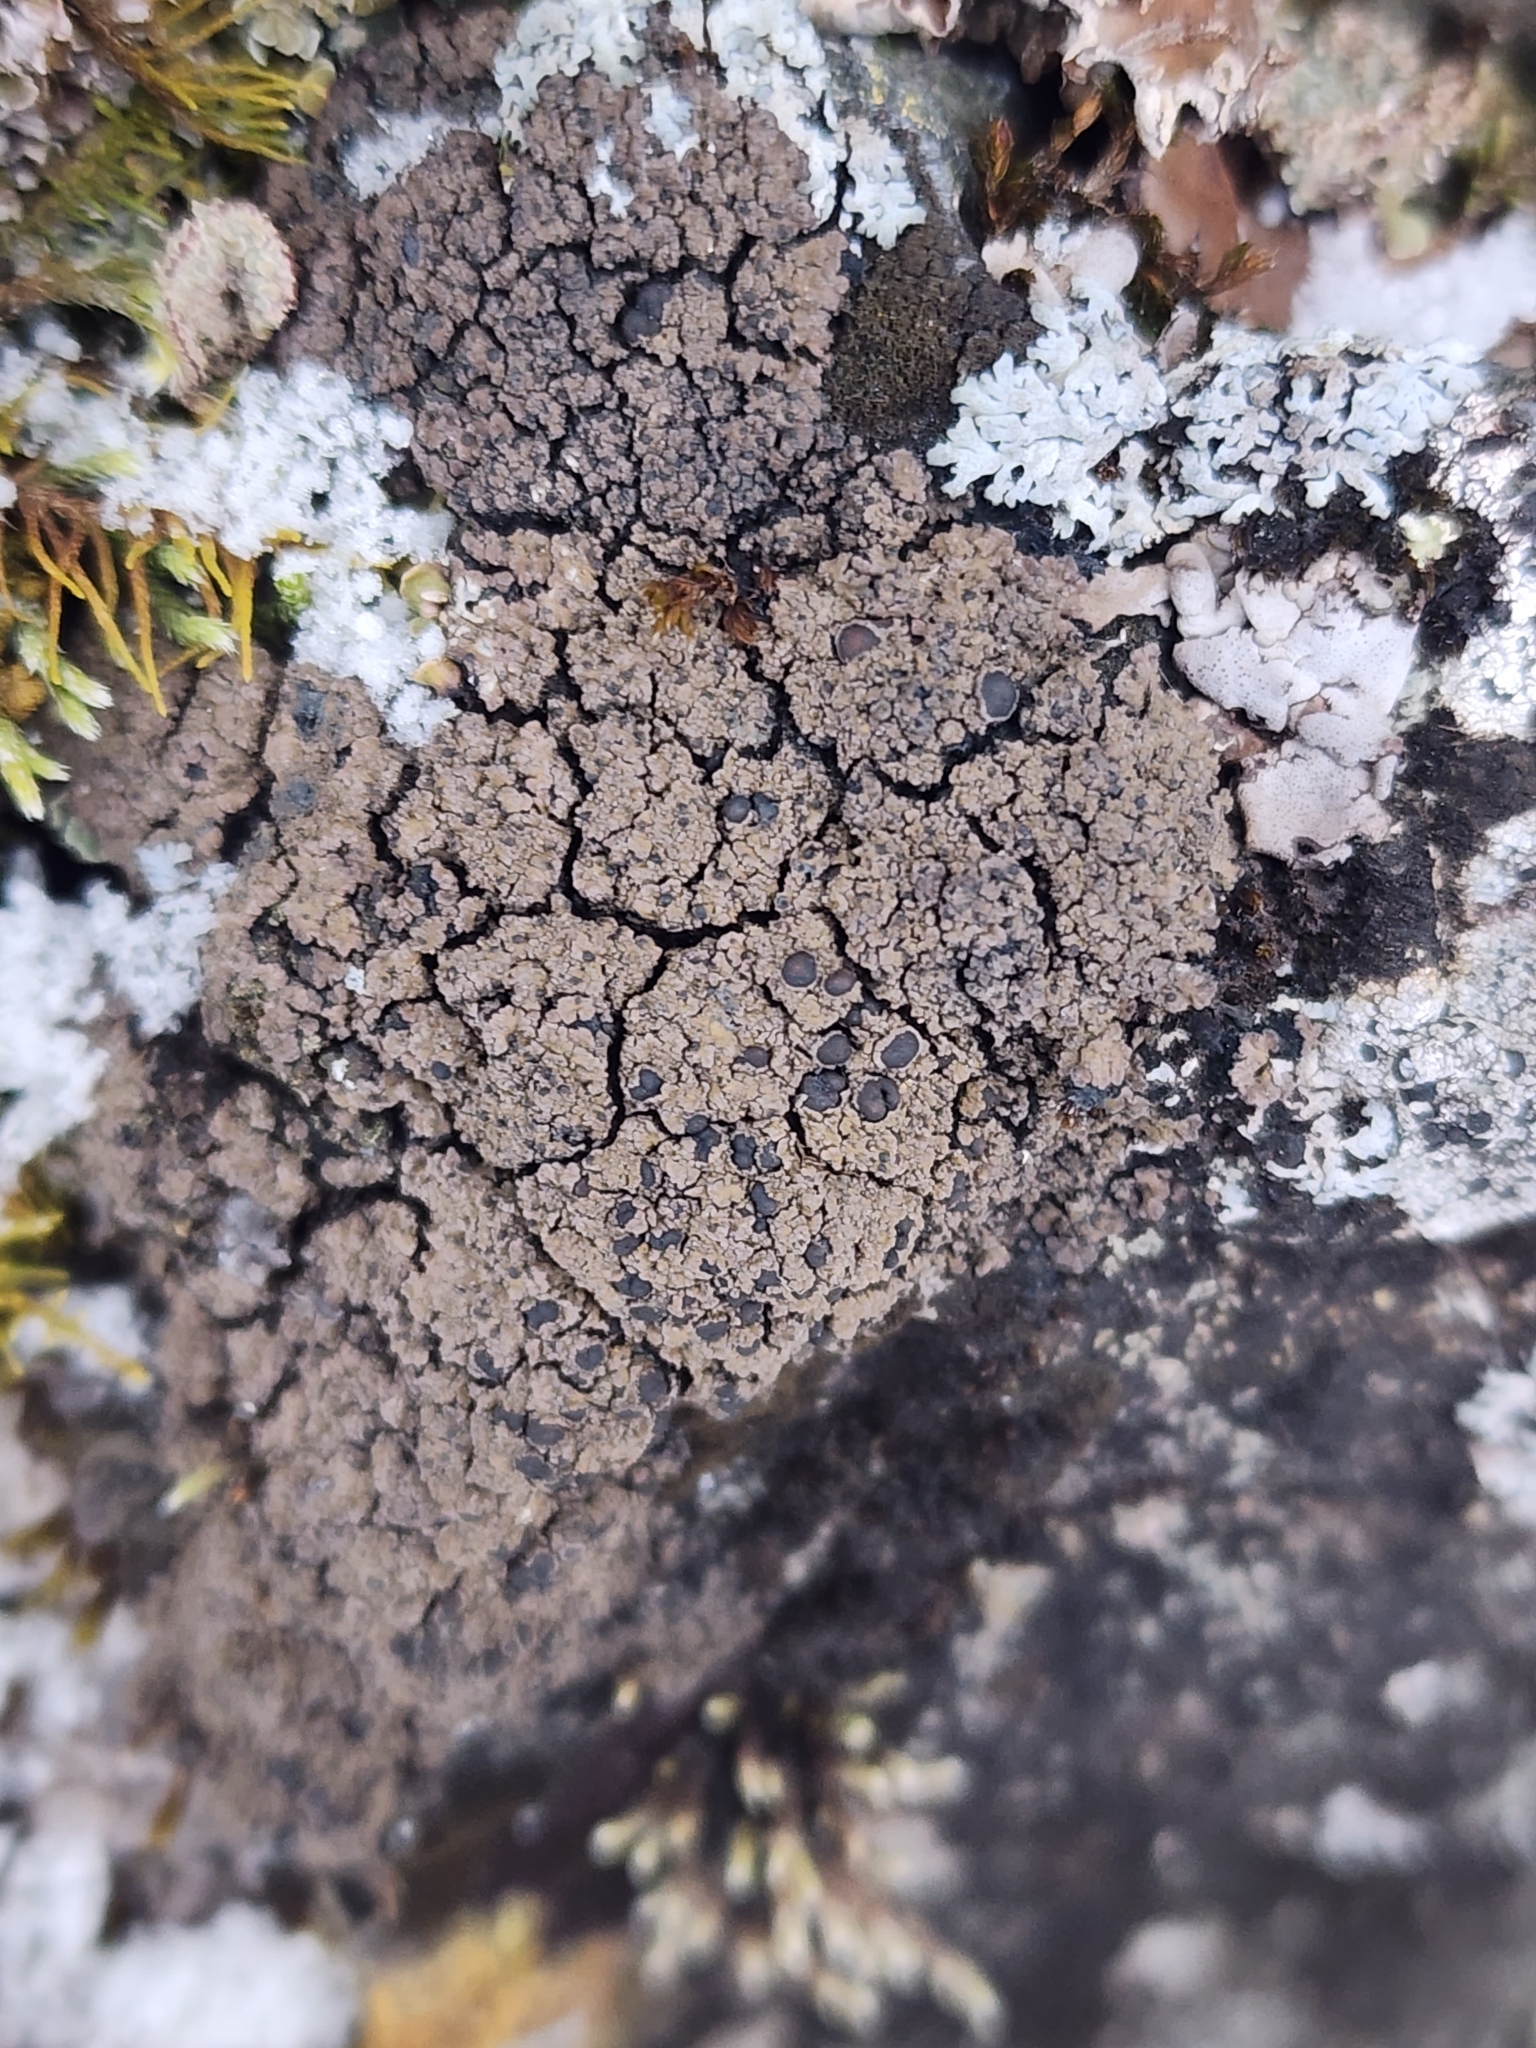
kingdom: Fungi
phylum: Ascomycota
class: Lecanoromycetes
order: Peltigerales
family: Vahliellaceae
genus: Vahliella
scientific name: Vahliella leucophaea
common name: Rock shingle lichen
